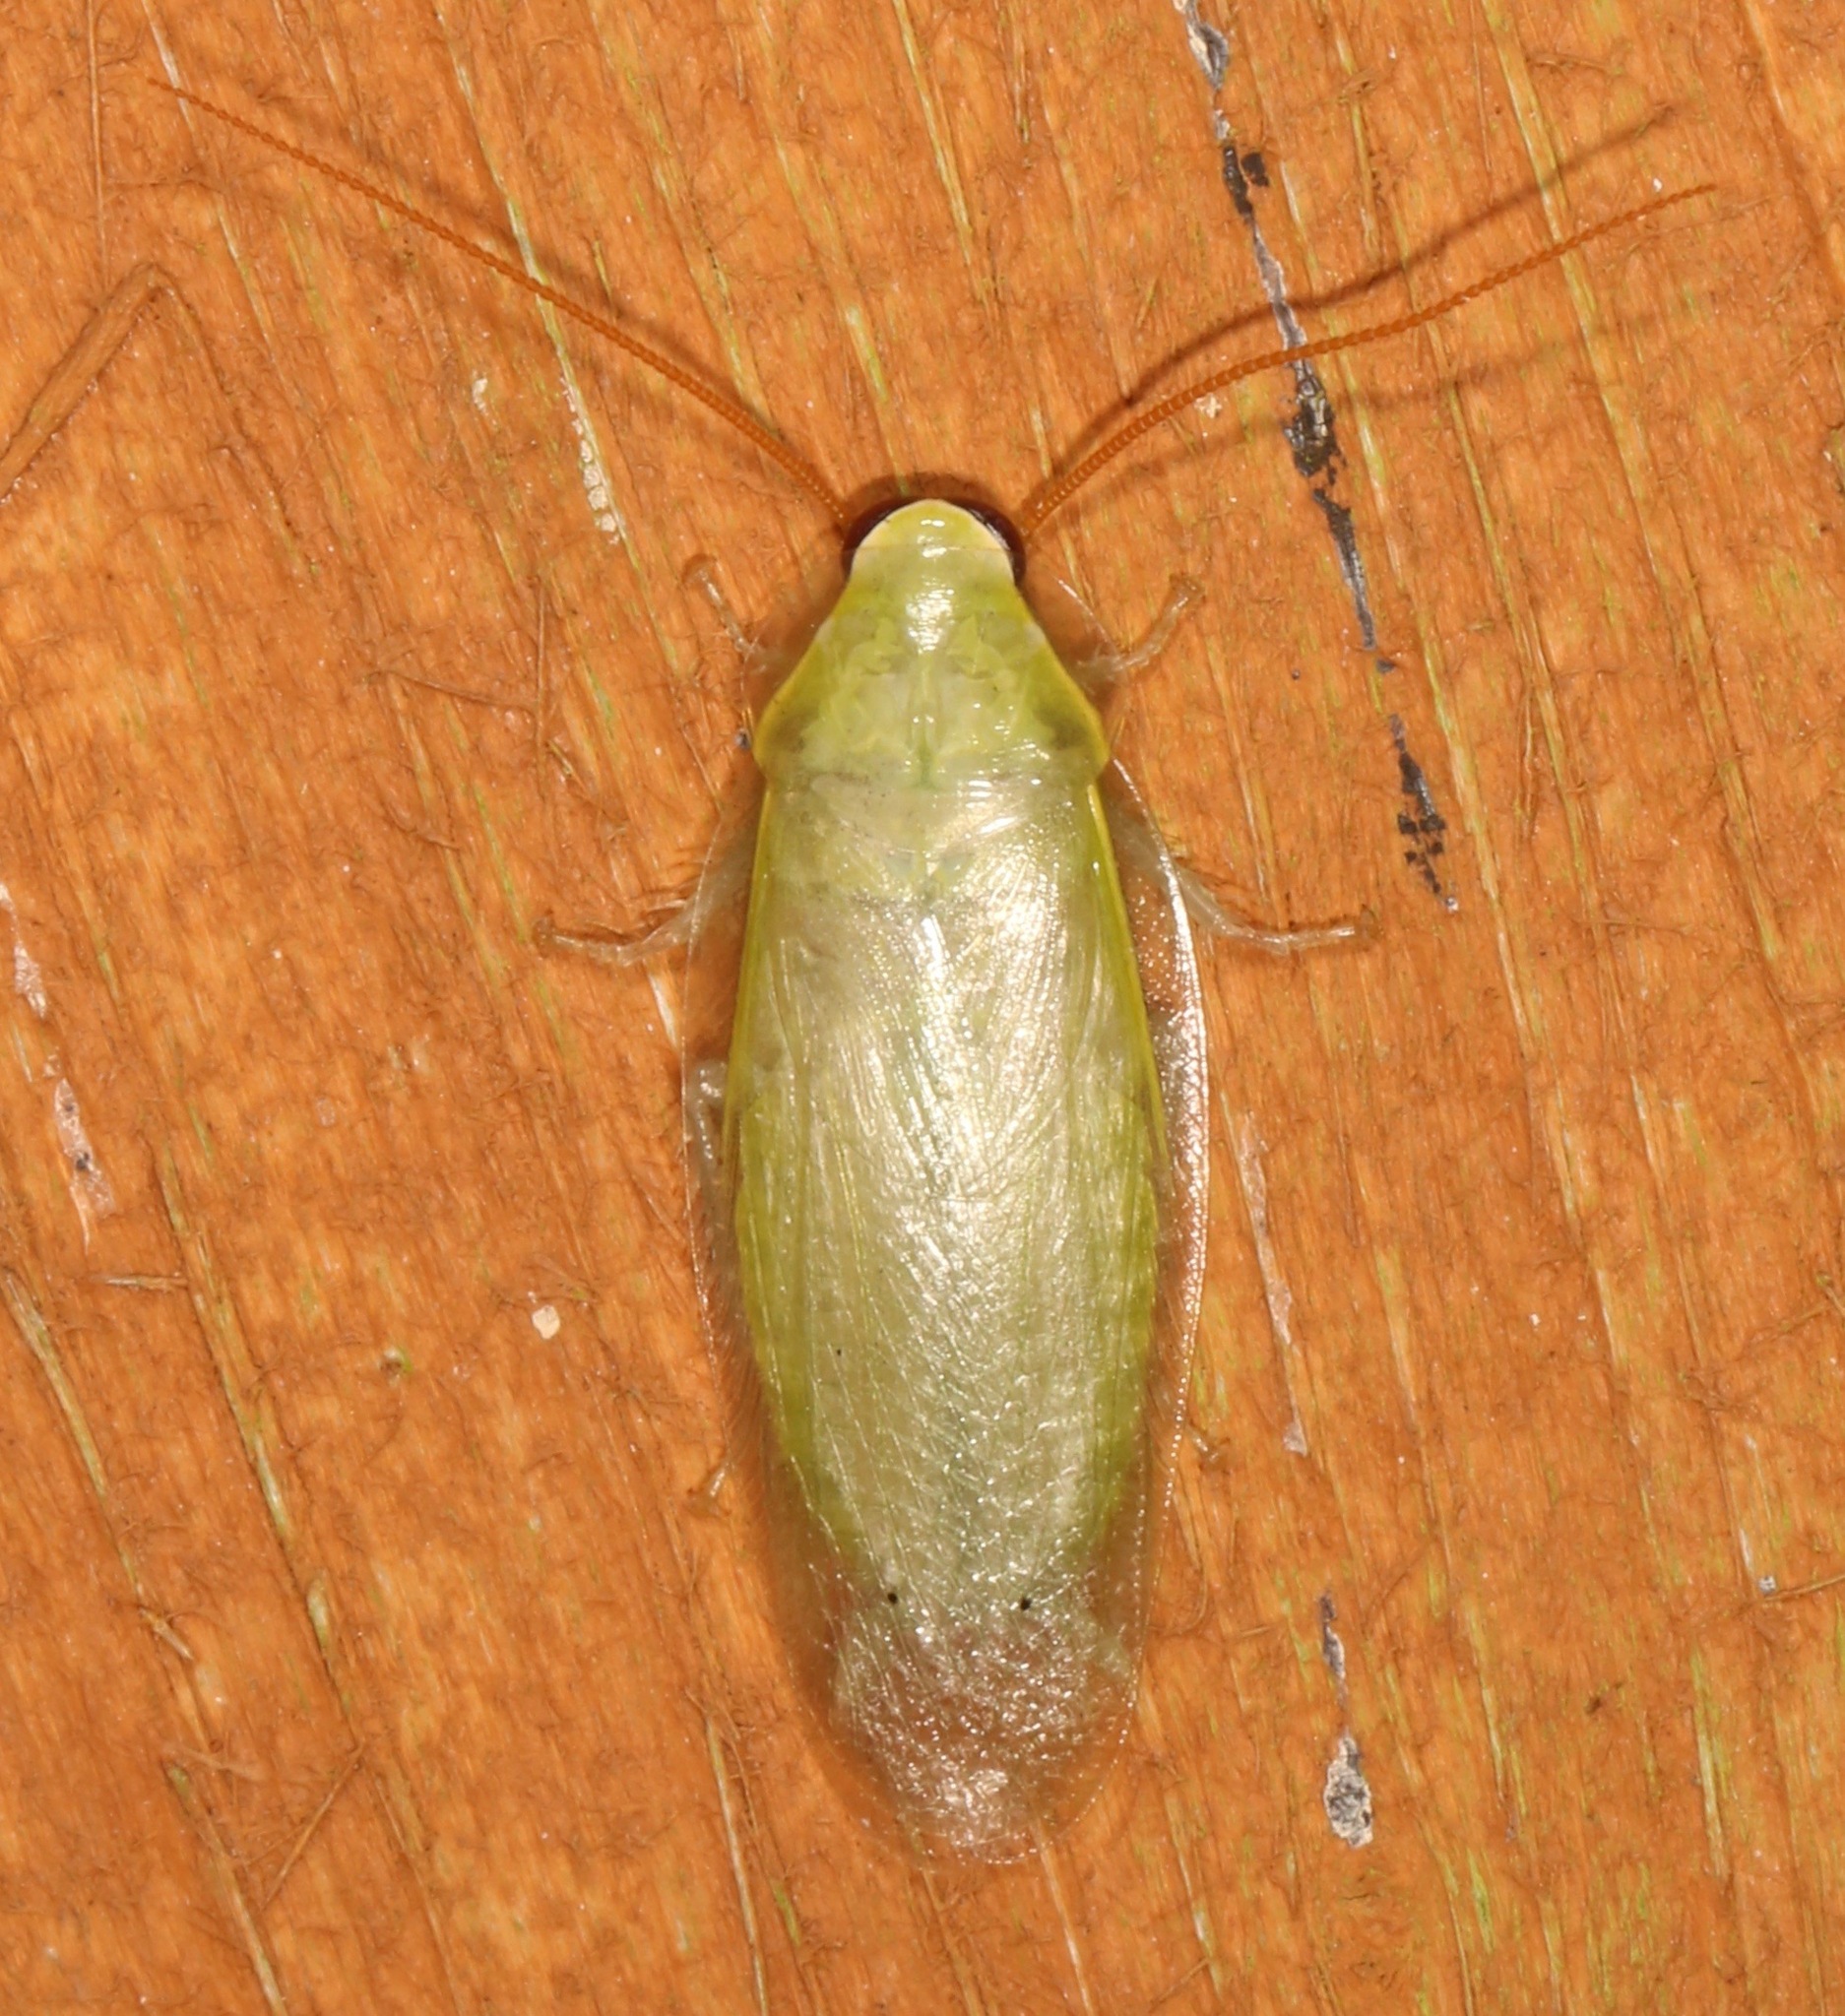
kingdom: Animalia
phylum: Arthropoda
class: Insecta
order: Blattodea
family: Blaberidae
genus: Panchlora
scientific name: Panchlora nivea
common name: Cuban cockroach
